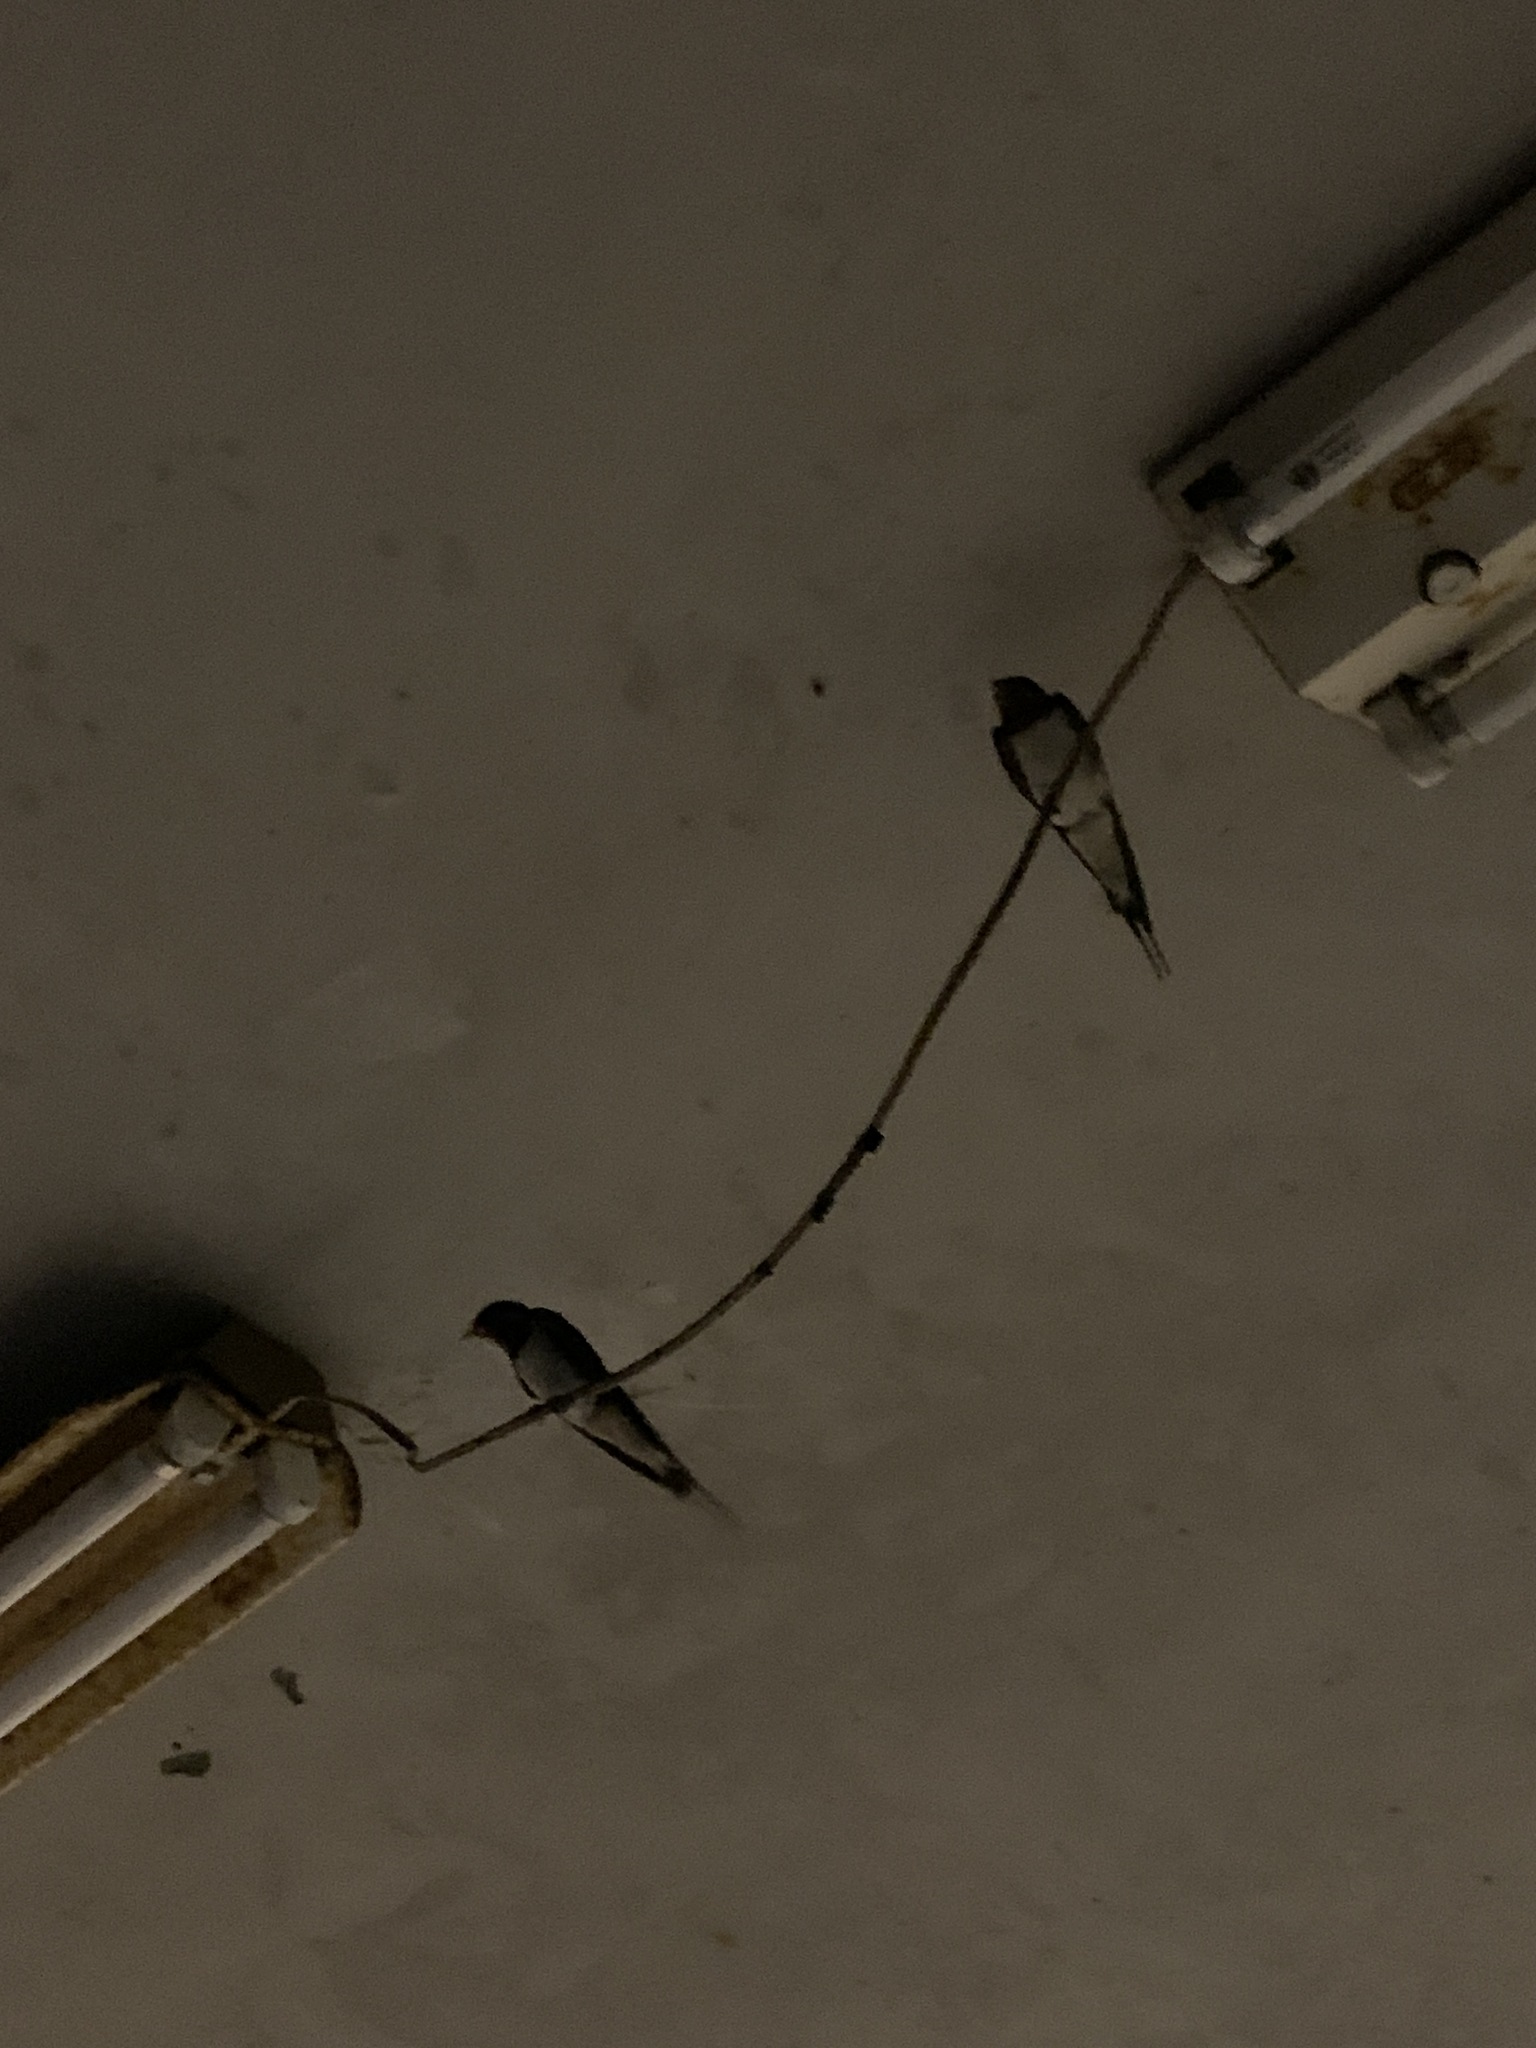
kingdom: Animalia
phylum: Chordata
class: Aves
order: Passeriformes
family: Hirundinidae
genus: Hirundo
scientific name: Hirundo rustica
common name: Barn swallow
